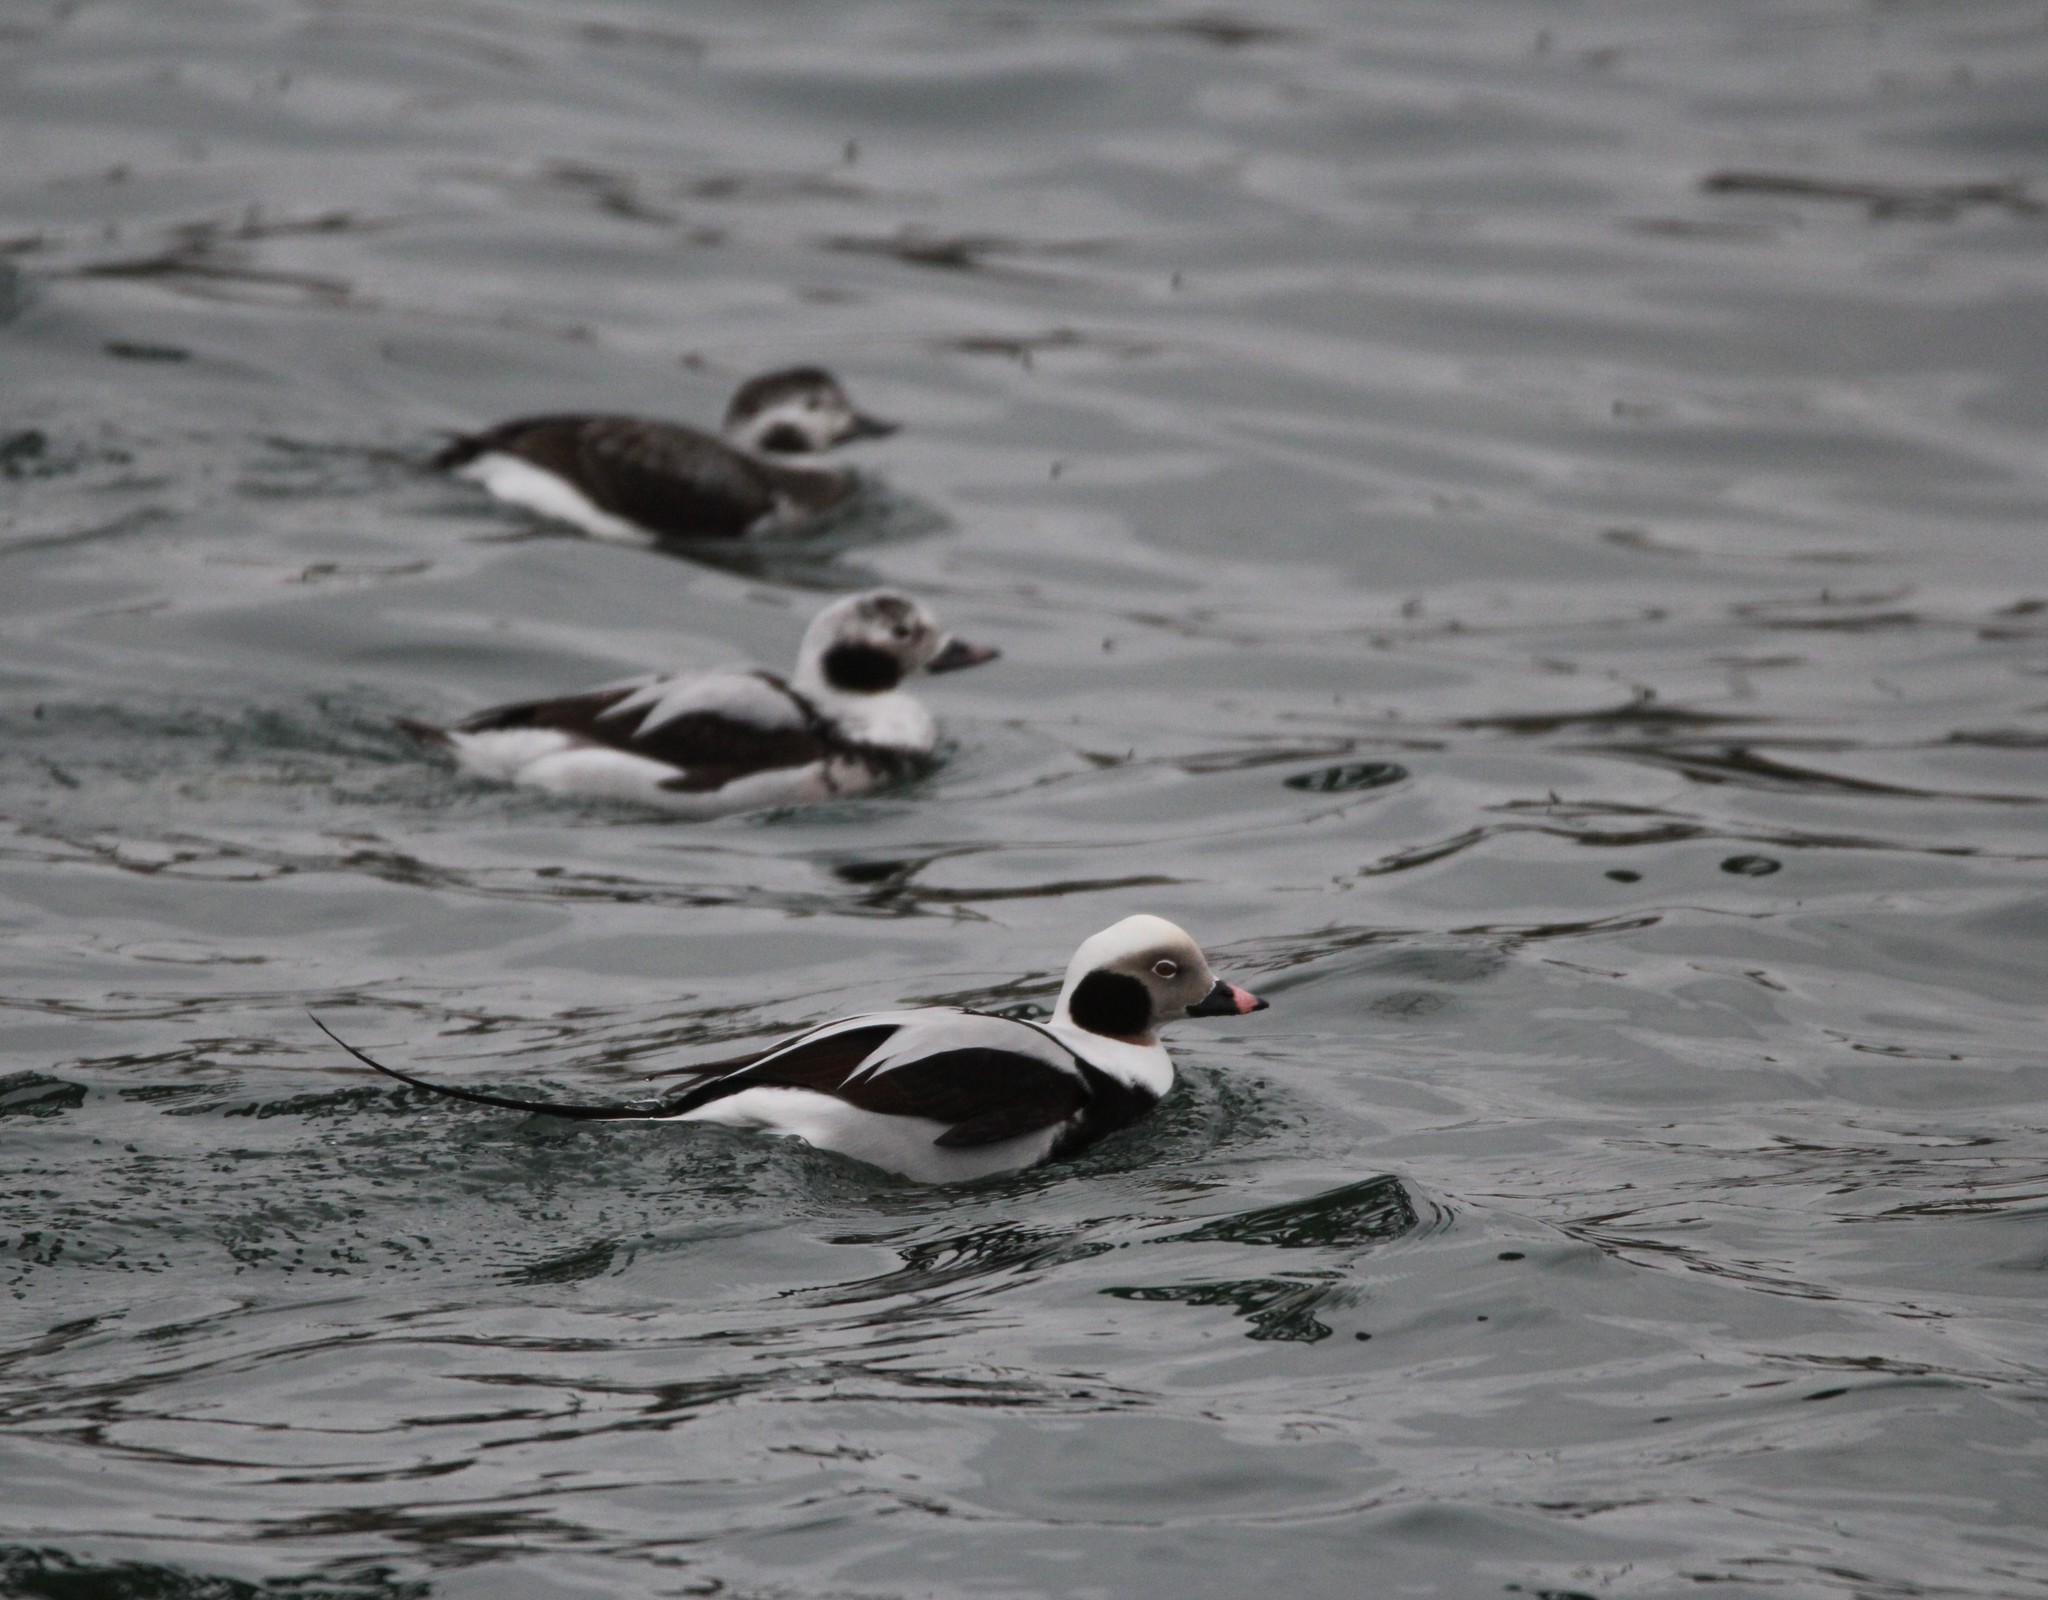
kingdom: Animalia
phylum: Chordata
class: Aves
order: Anseriformes
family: Anatidae
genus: Clangula
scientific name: Clangula hyemalis
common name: Long-tailed duck
